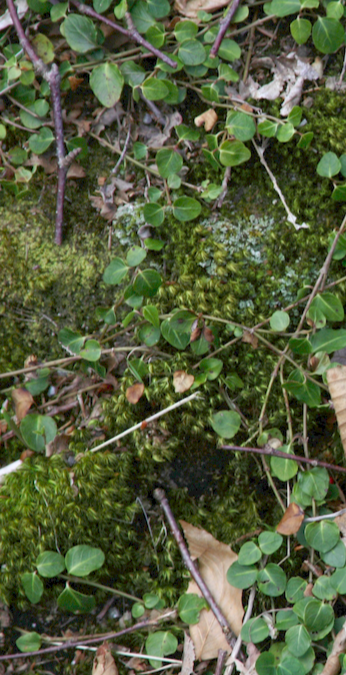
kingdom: Plantae
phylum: Tracheophyta
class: Magnoliopsida
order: Gentianales
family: Rubiaceae
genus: Mitchella
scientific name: Mitchella repens
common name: Partridge-berry
